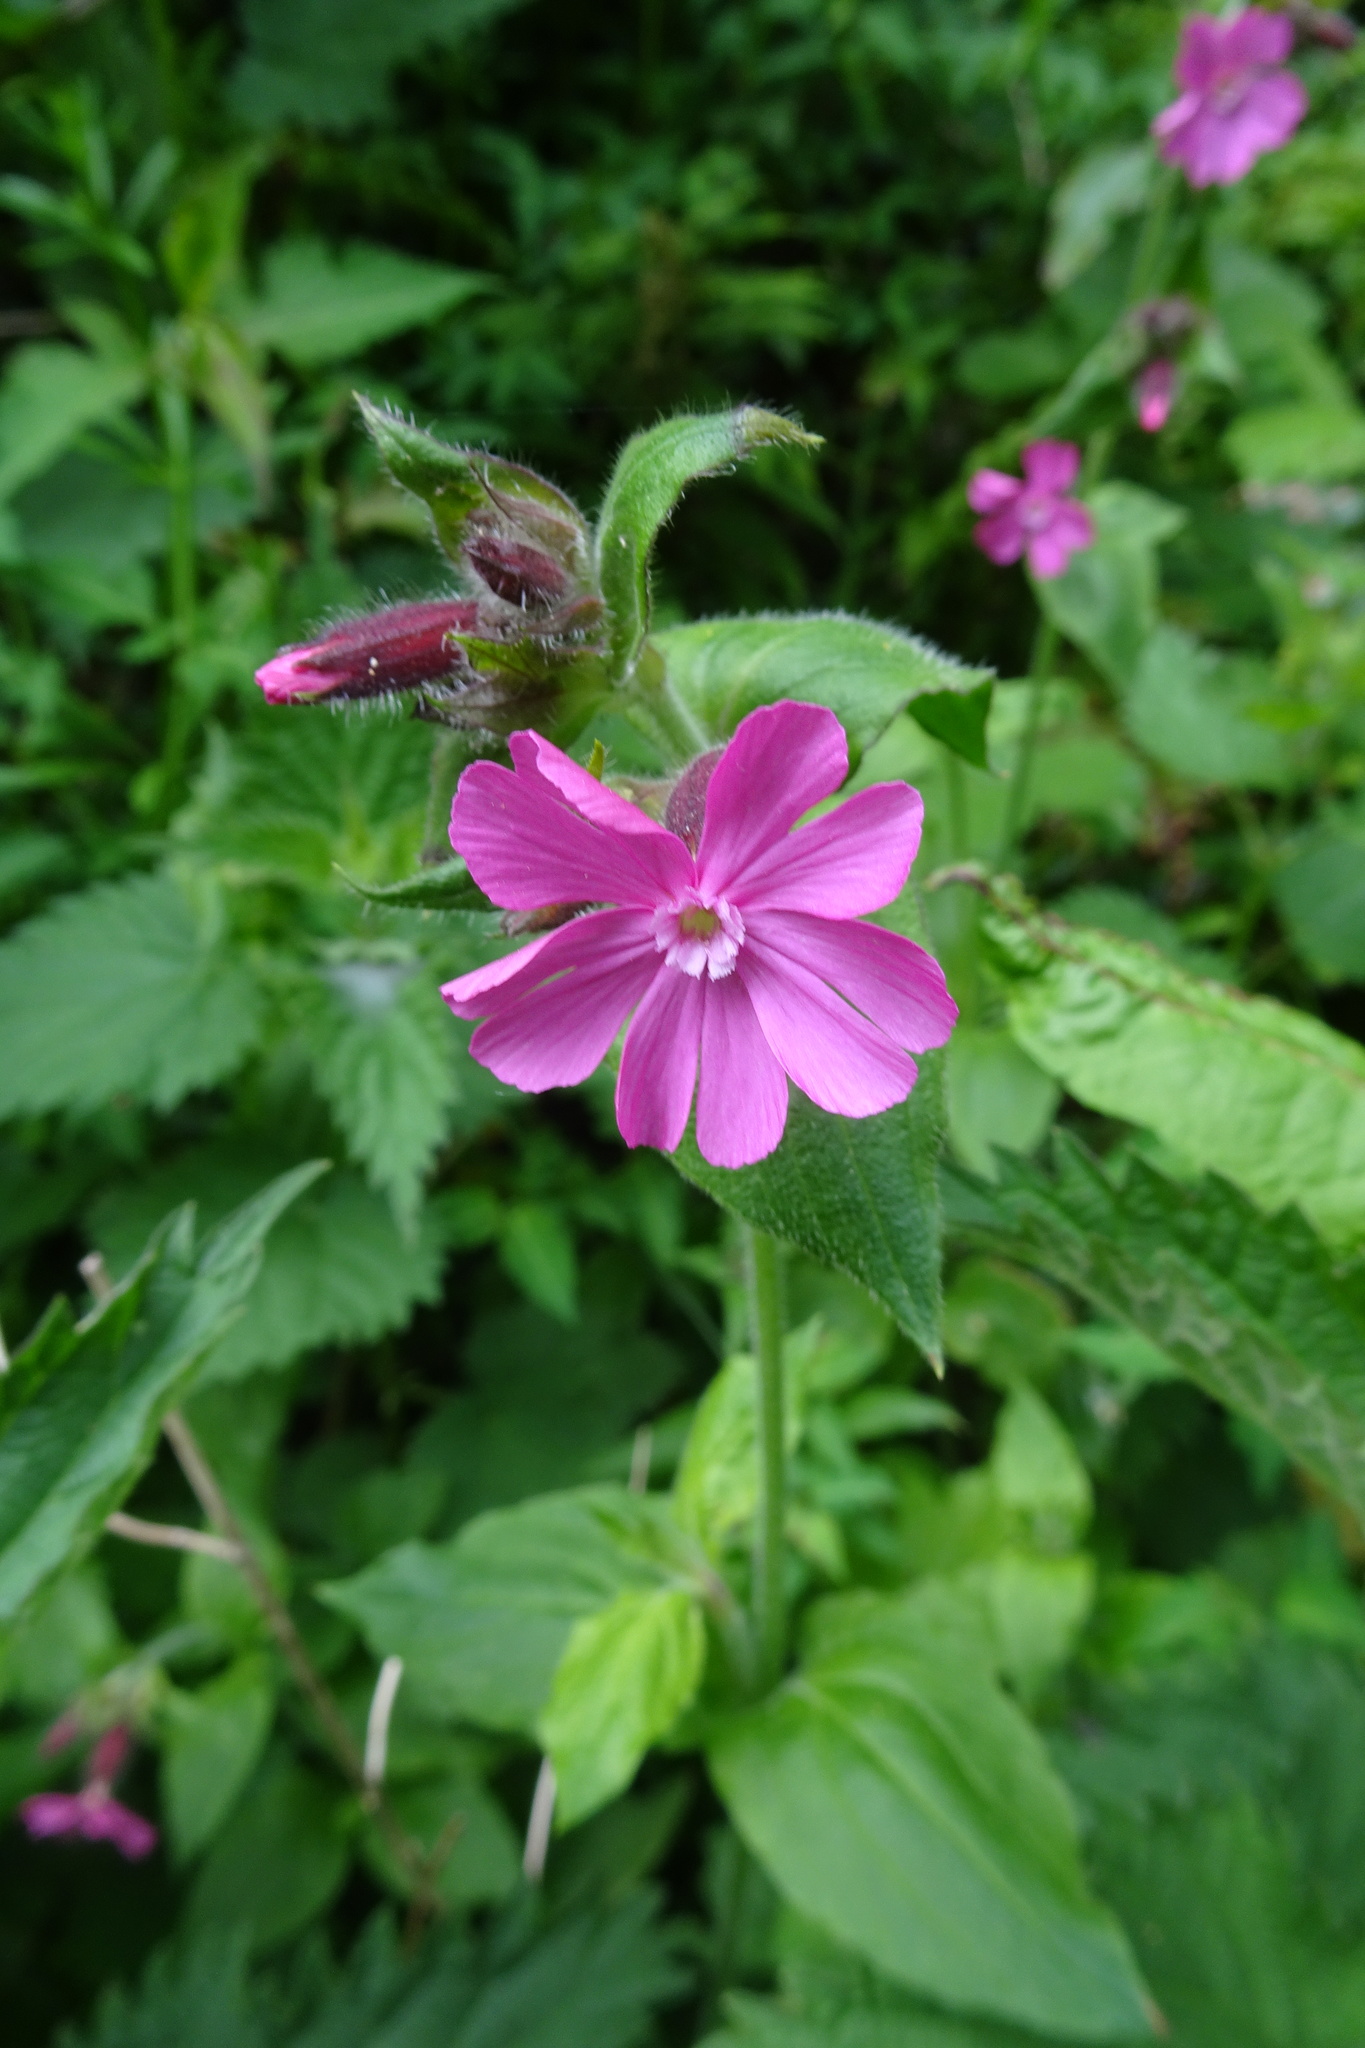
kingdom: Plantae
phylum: Tracheophyta
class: Magnoliopsida
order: Caryophyllales
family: Caryophyllaceae
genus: Silene
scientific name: Silene dioica
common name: Red campion
